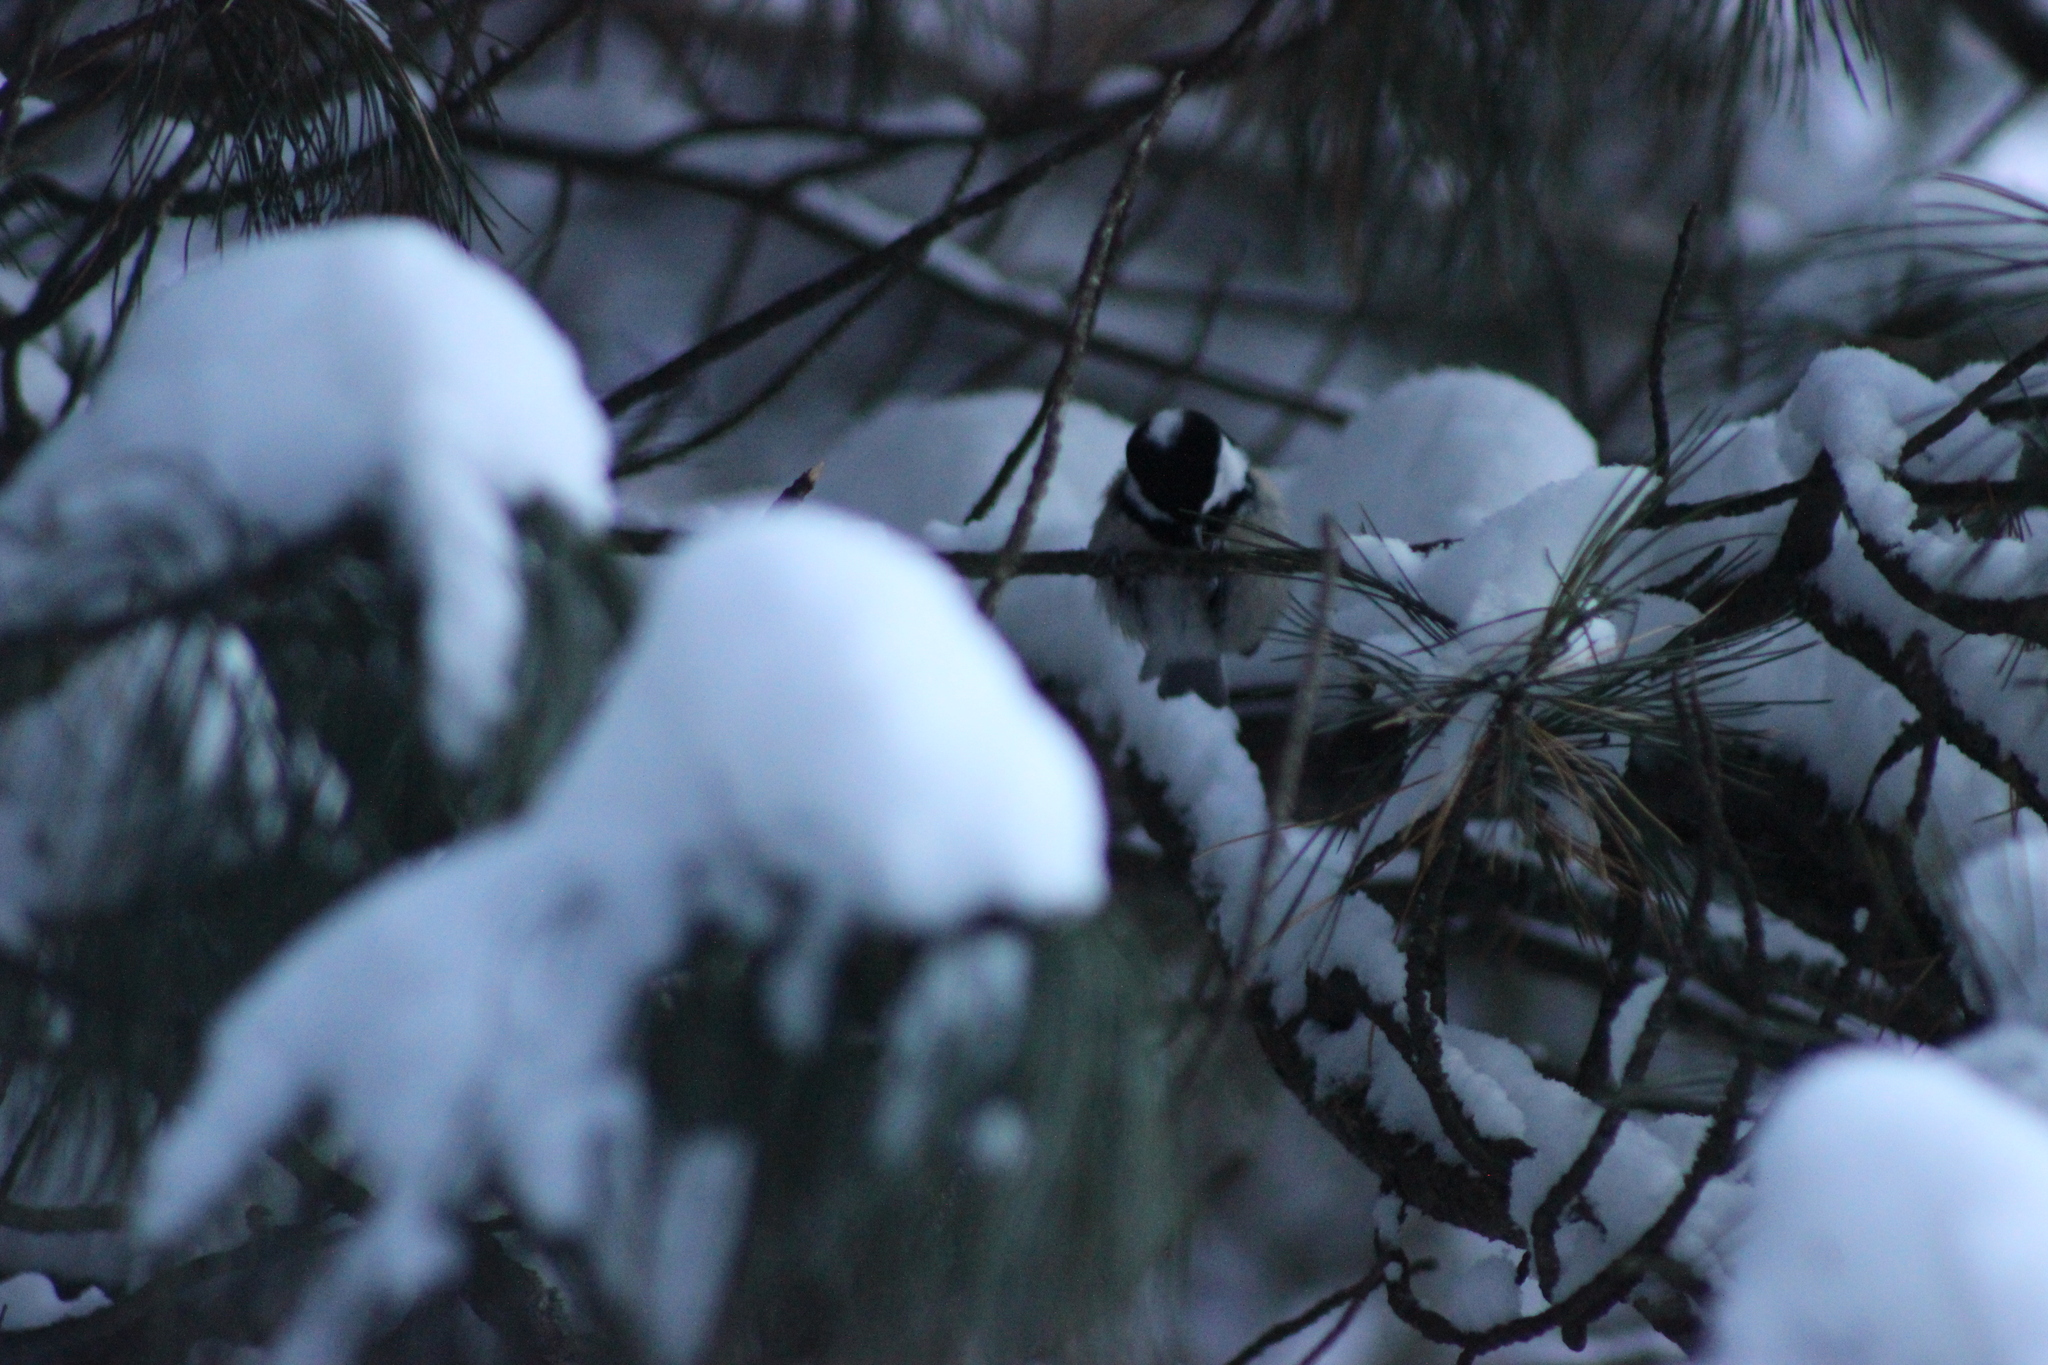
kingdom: Animalia
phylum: Chordata
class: Aves
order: Passeriformes
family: Paridae
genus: Periparus
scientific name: Periparus ater
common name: Coal tit
